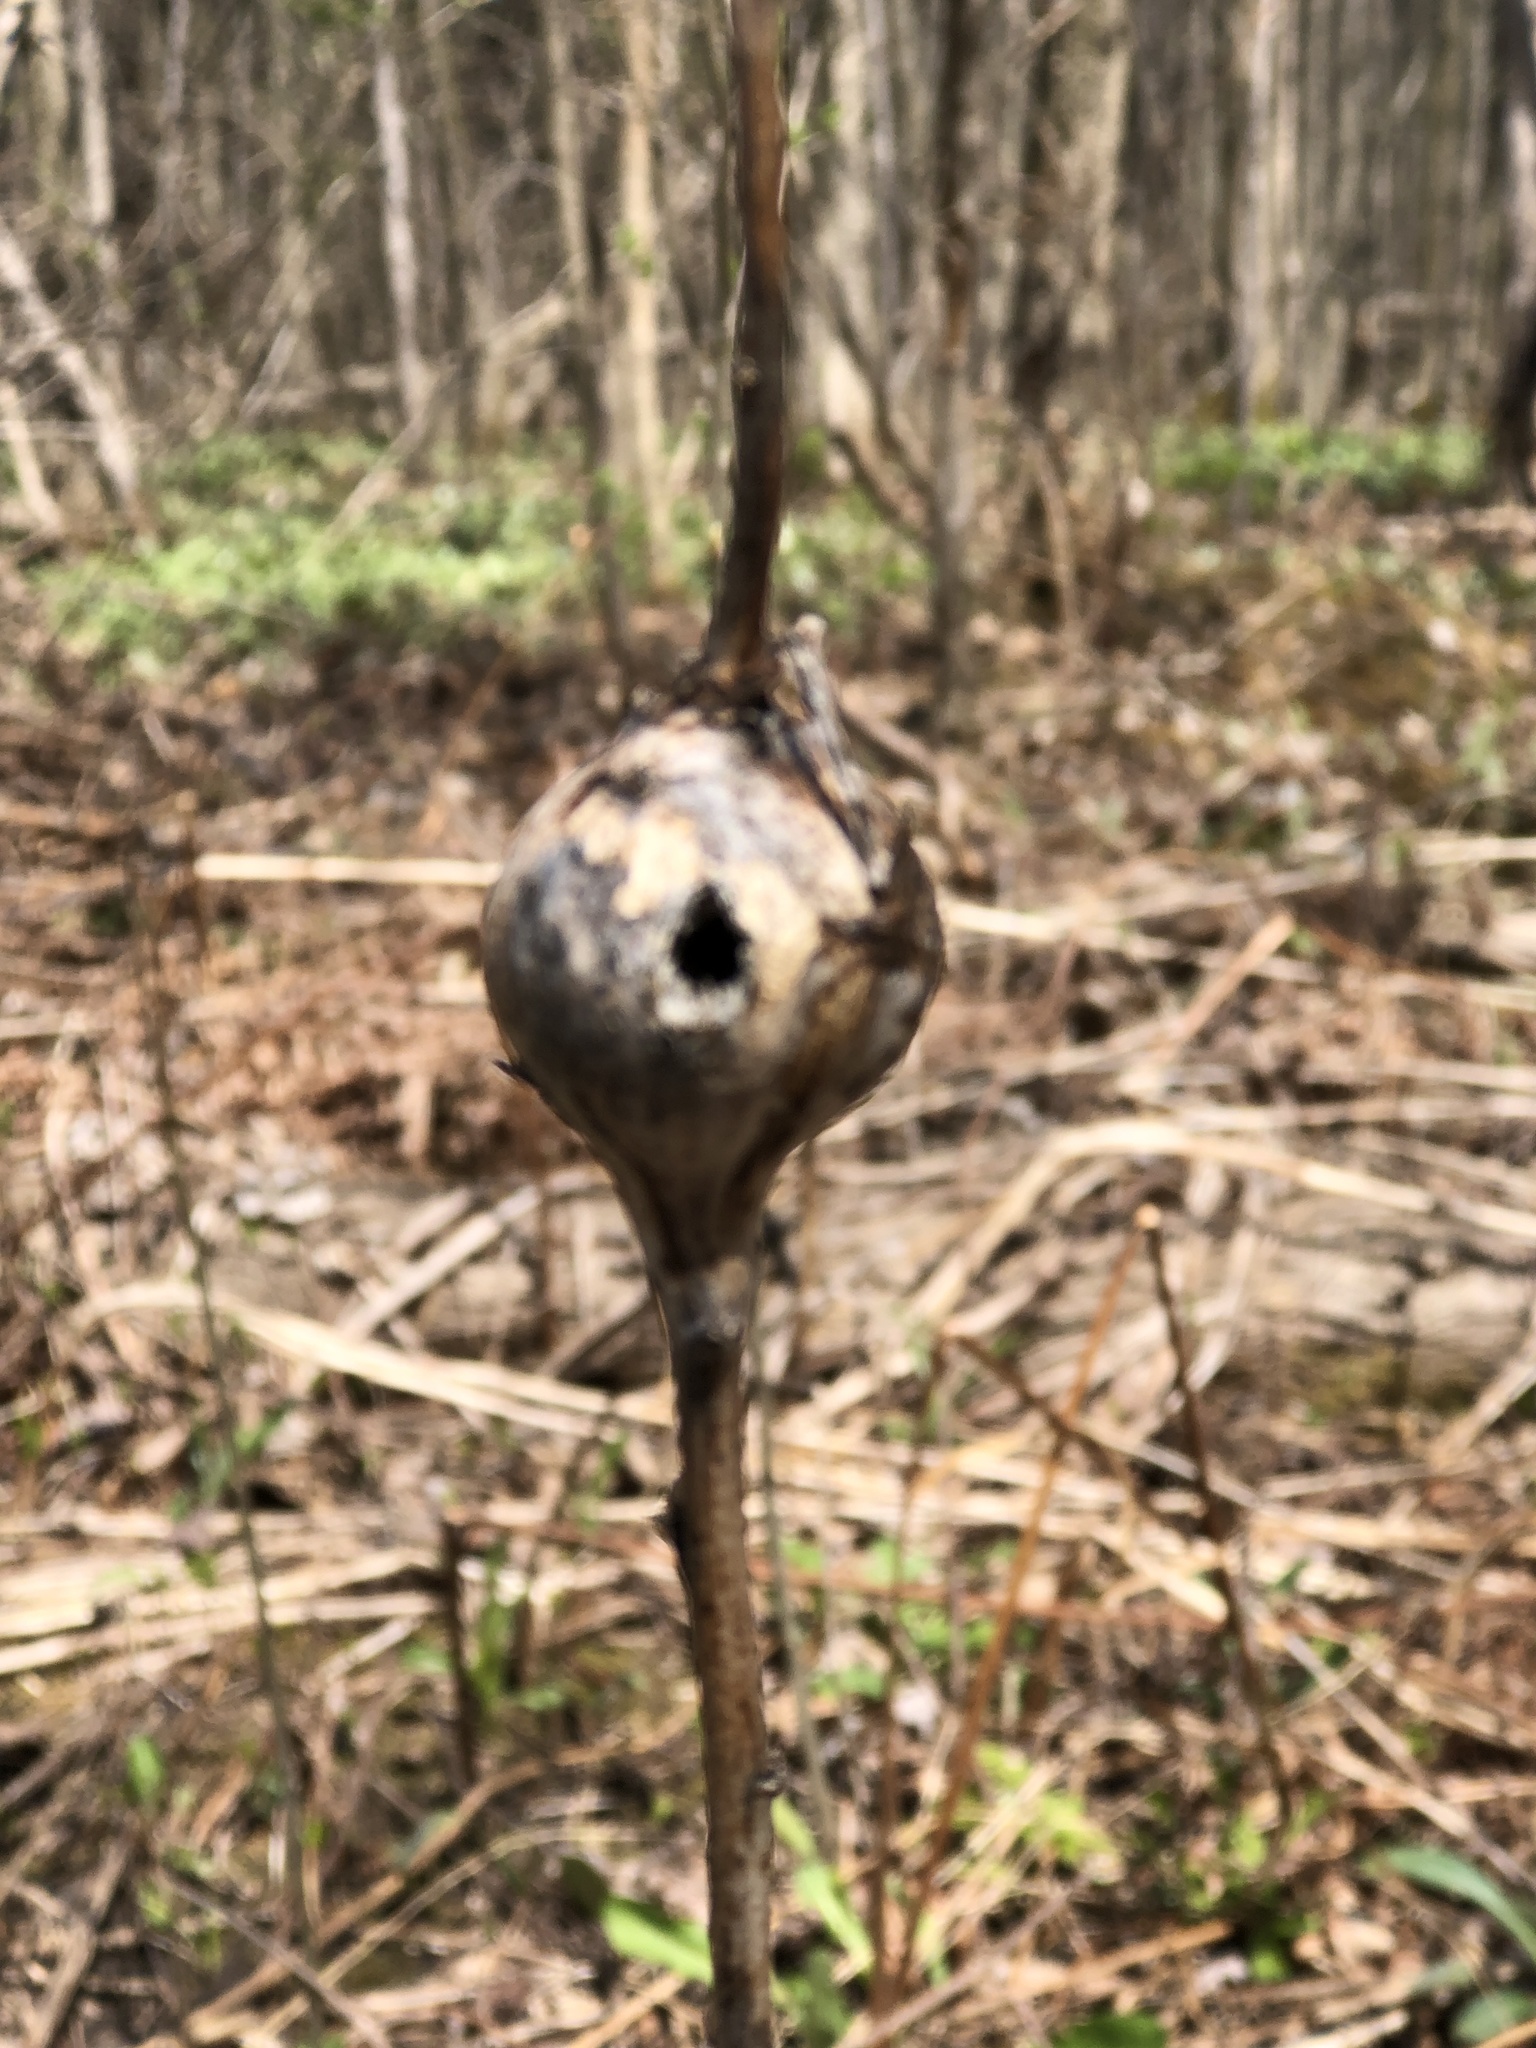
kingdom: Animalia
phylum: Arthropoda
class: Insecta
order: Diptera
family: Tephritidae
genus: Eurosta
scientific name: Eurosta solidaginis
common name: Goldenrod gall fly
